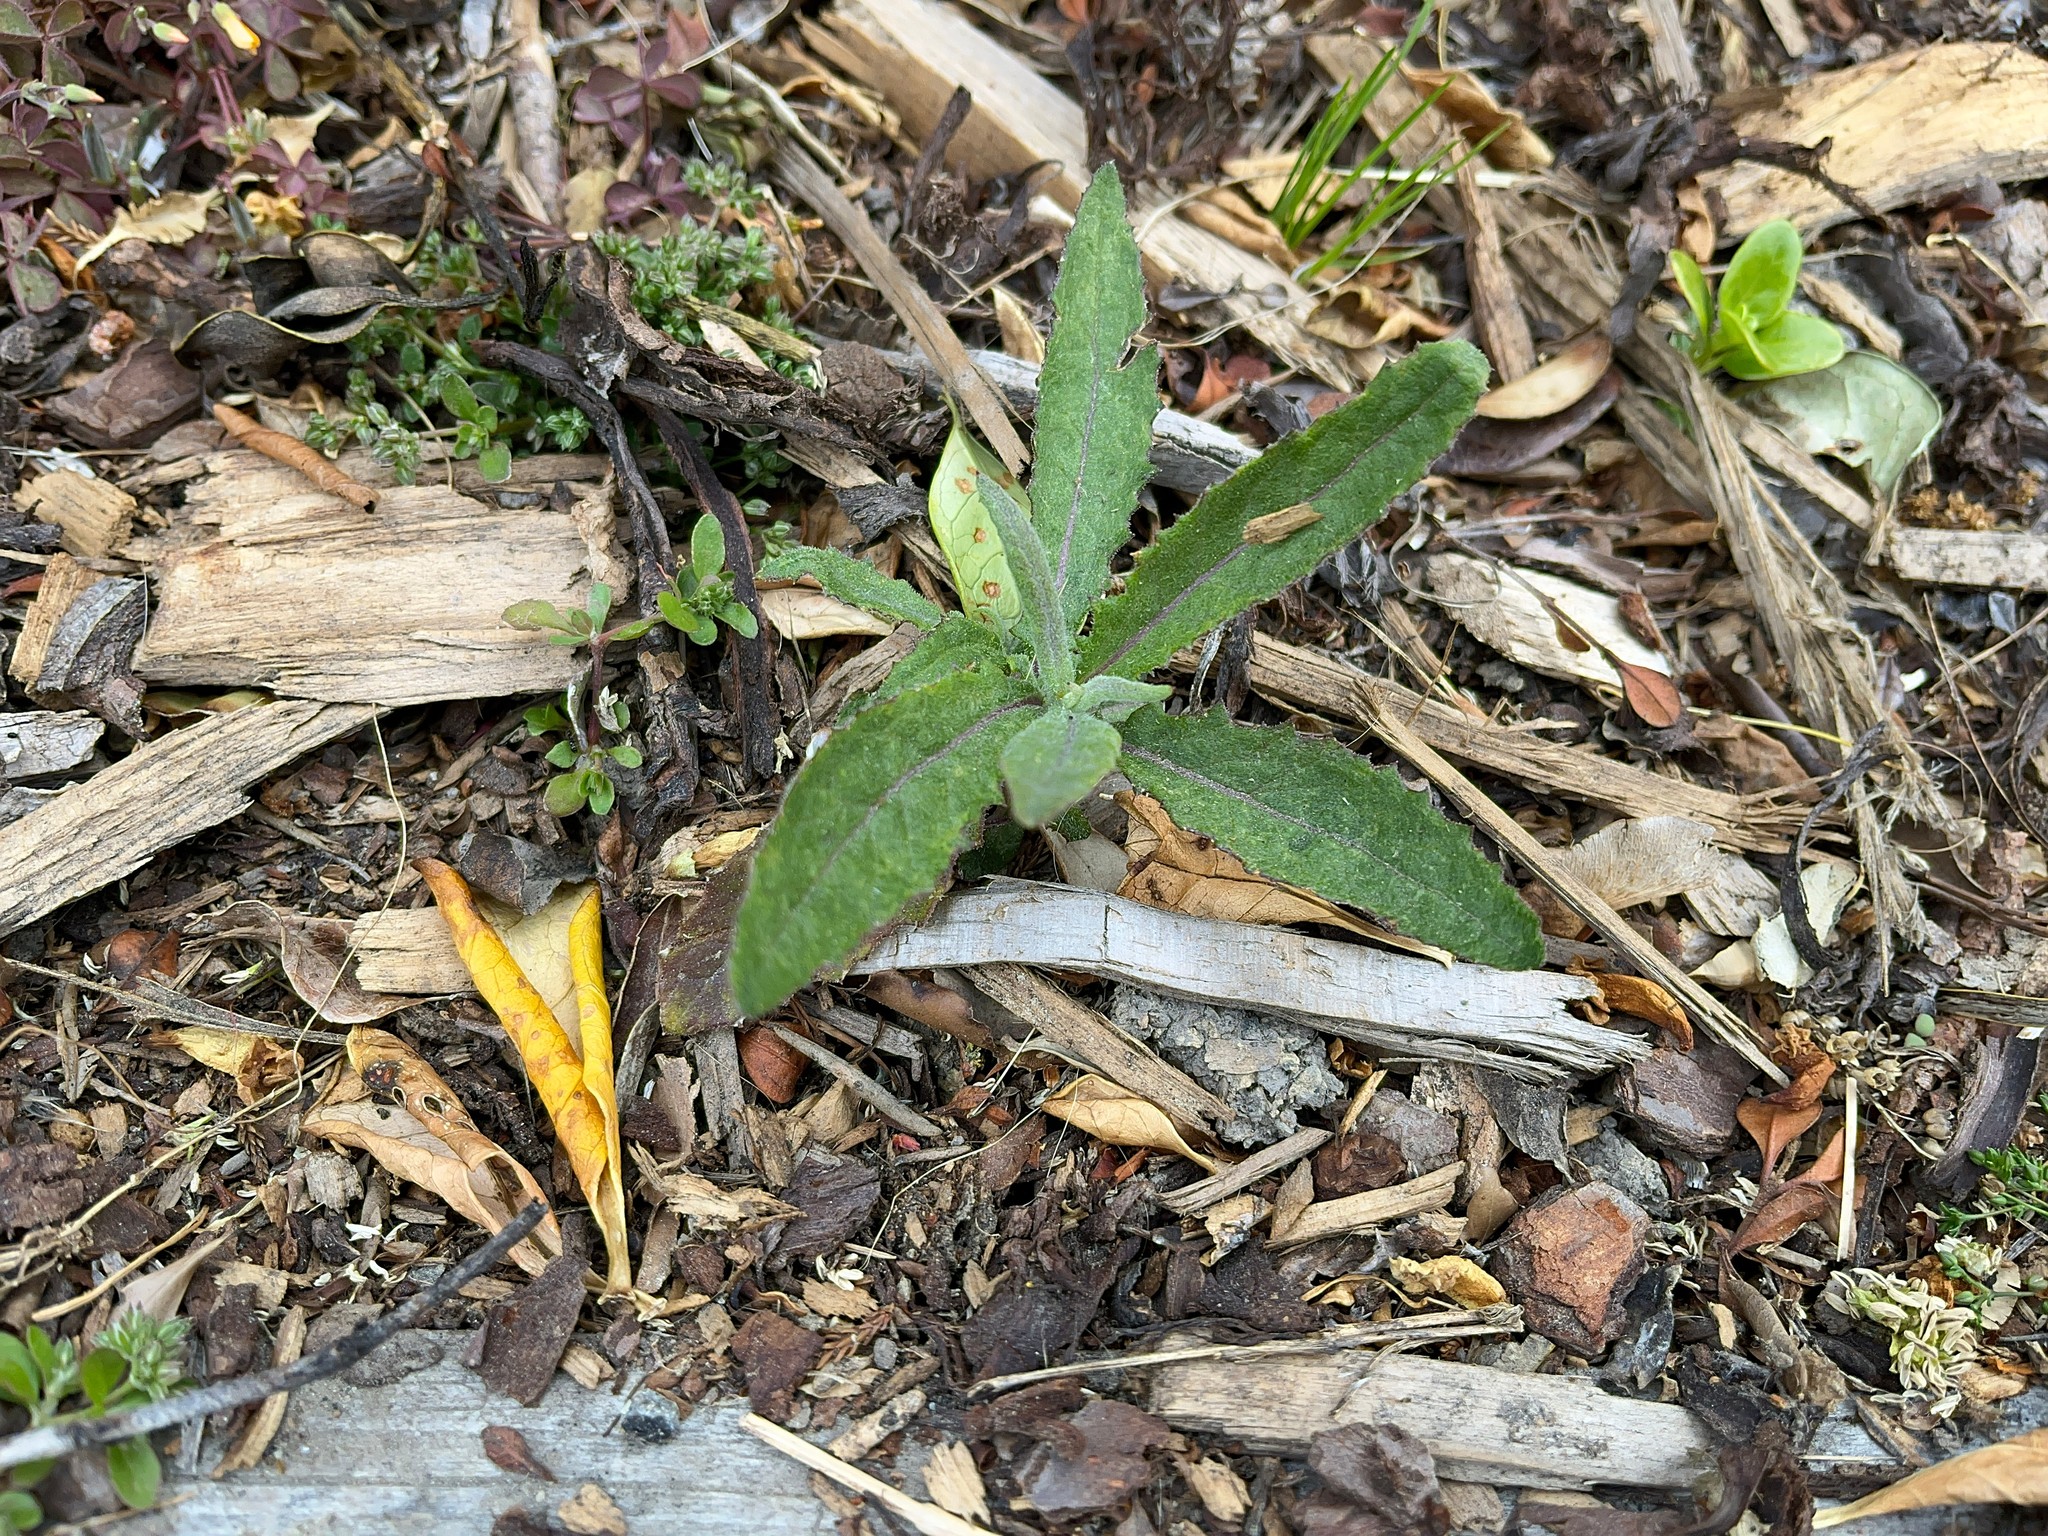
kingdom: Plantae
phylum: Tracheophyta
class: Magnoliopsida
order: Asterales
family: Asteraceae
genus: Senecio
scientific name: Senecio minimus
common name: Toothed fireweed
